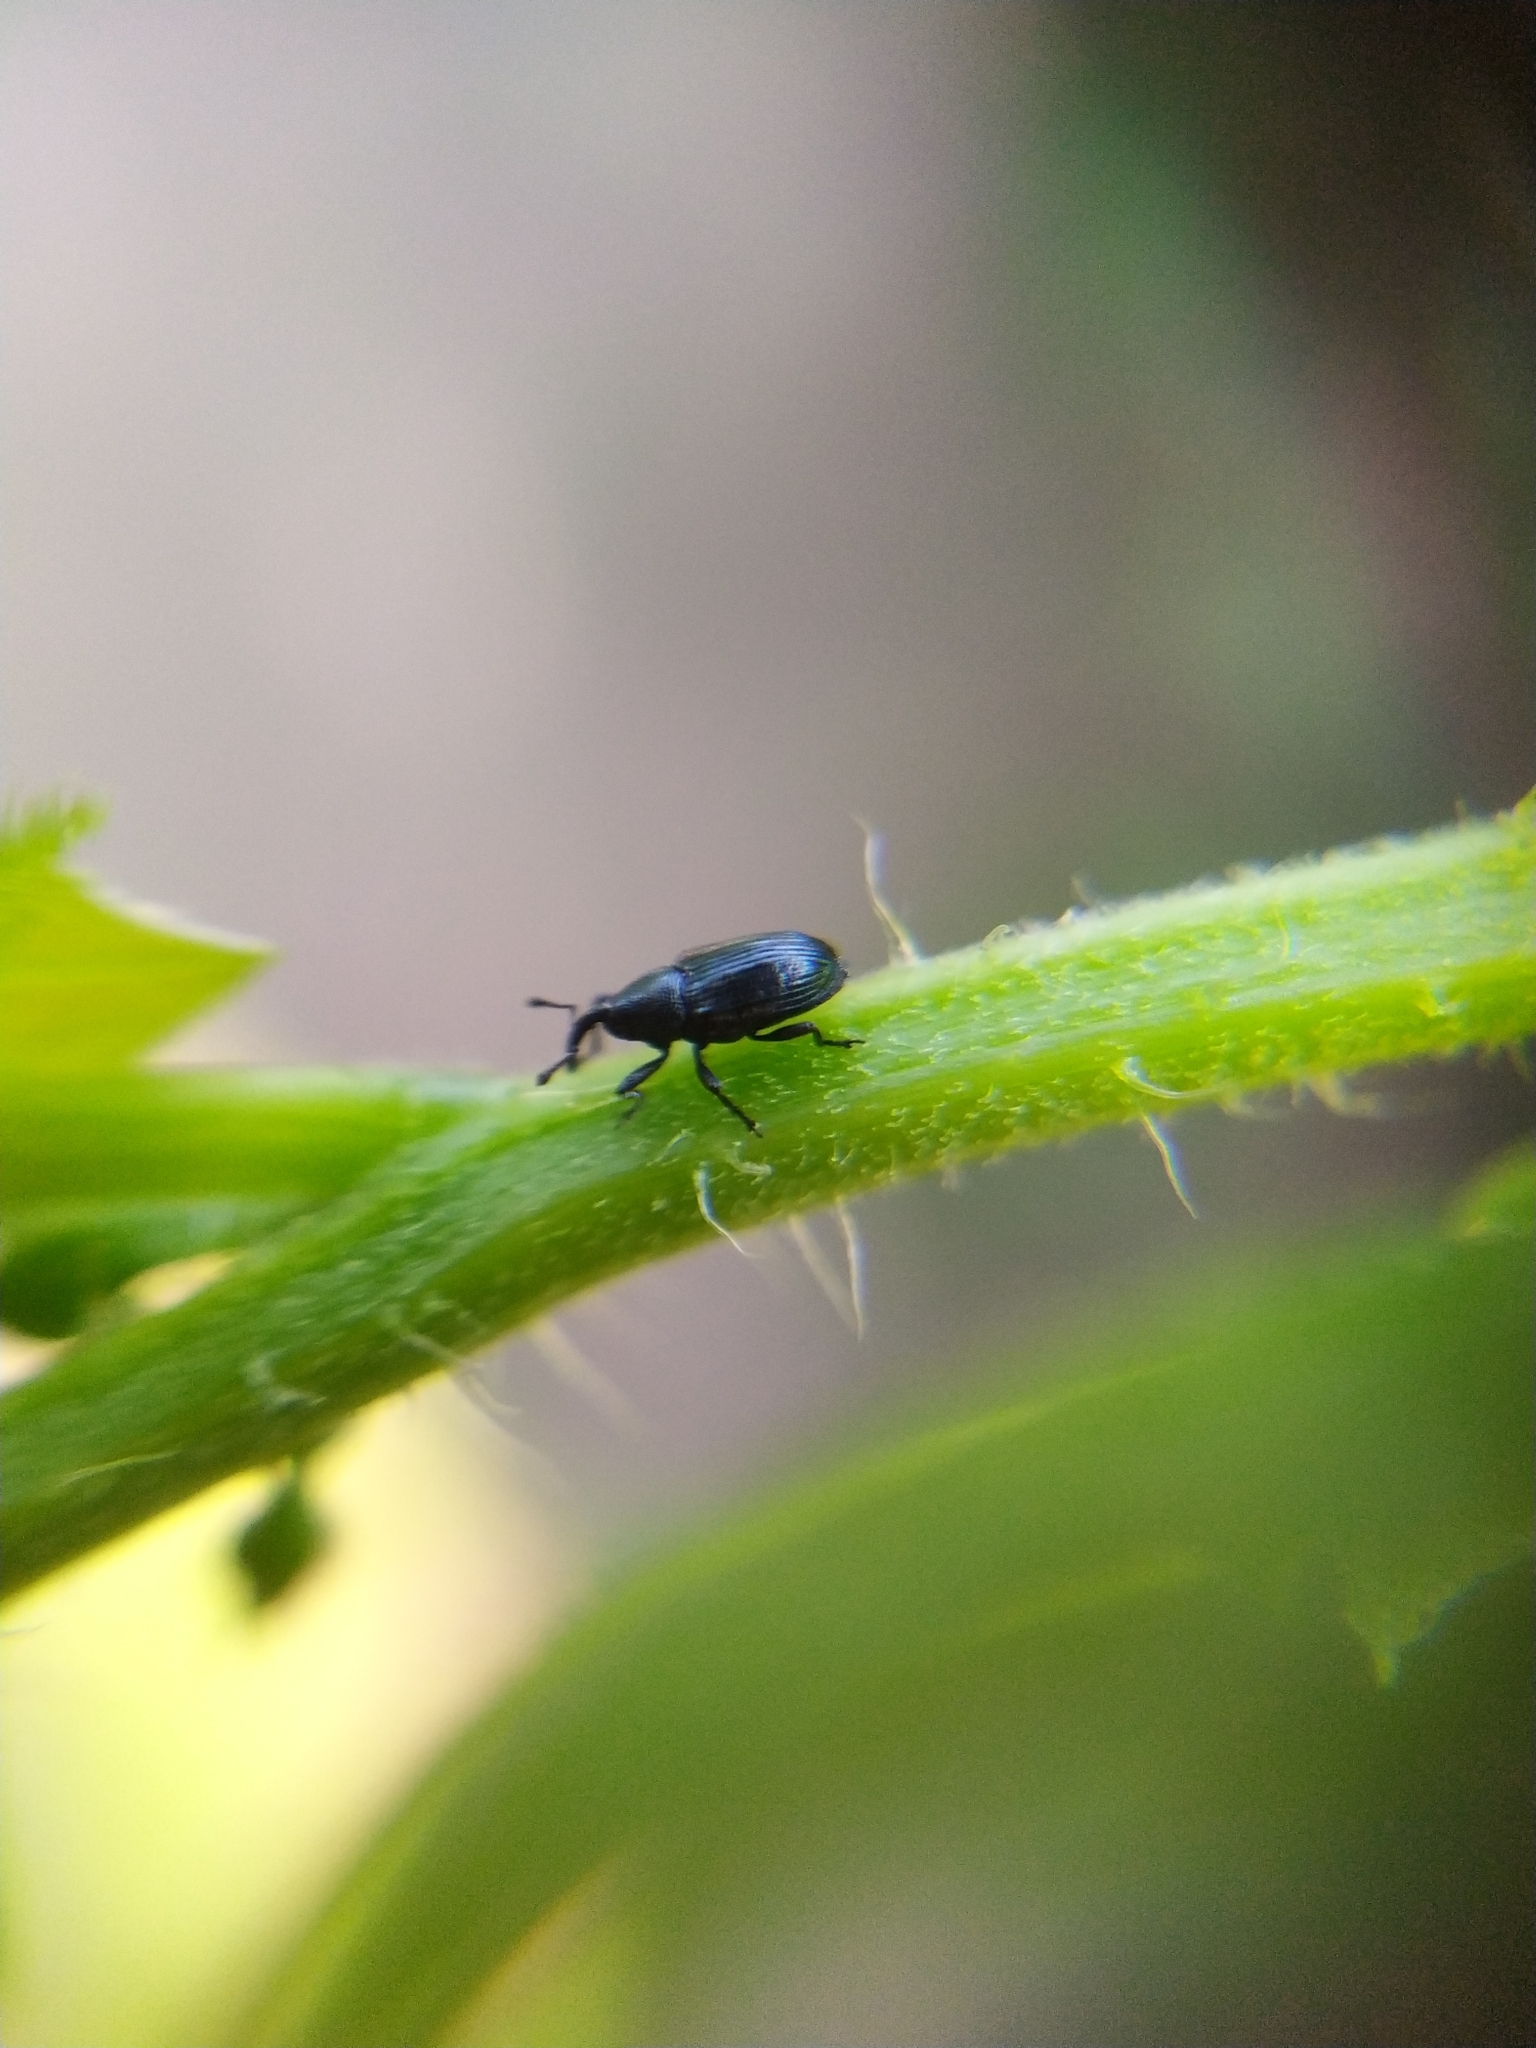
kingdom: Animalia
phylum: Arthropoda
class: Insecta
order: Coleoptera
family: Curculionidae
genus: Cucubaris
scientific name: Cucubaris villae
